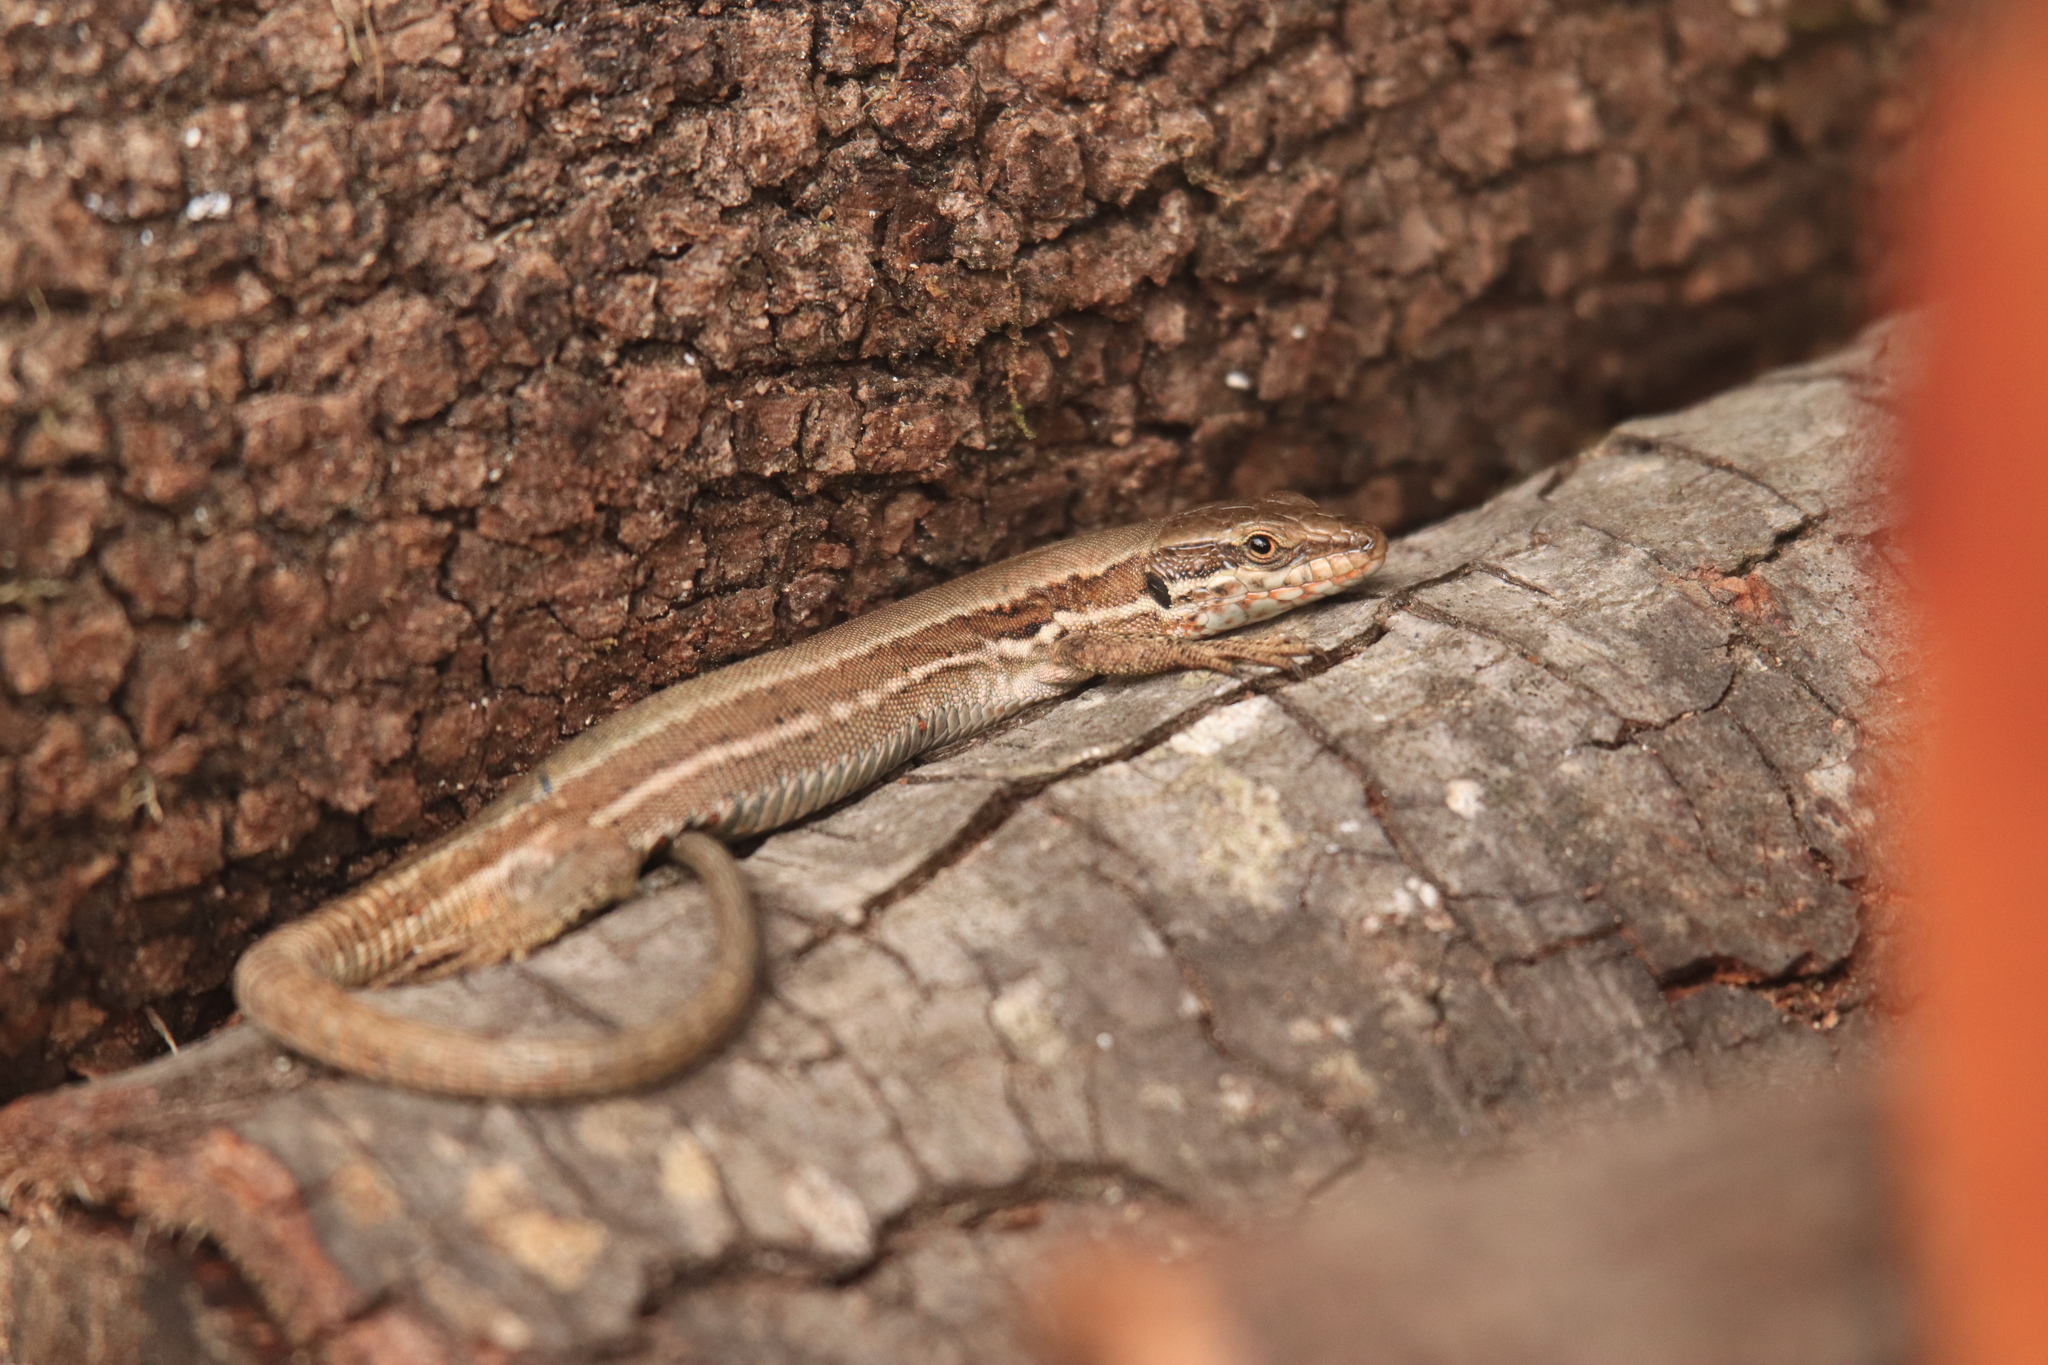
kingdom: Animalia
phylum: Chordata
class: Squamata
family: Lacertidae
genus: Podarcis
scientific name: Podarcis muralis
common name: Common wall lizard
